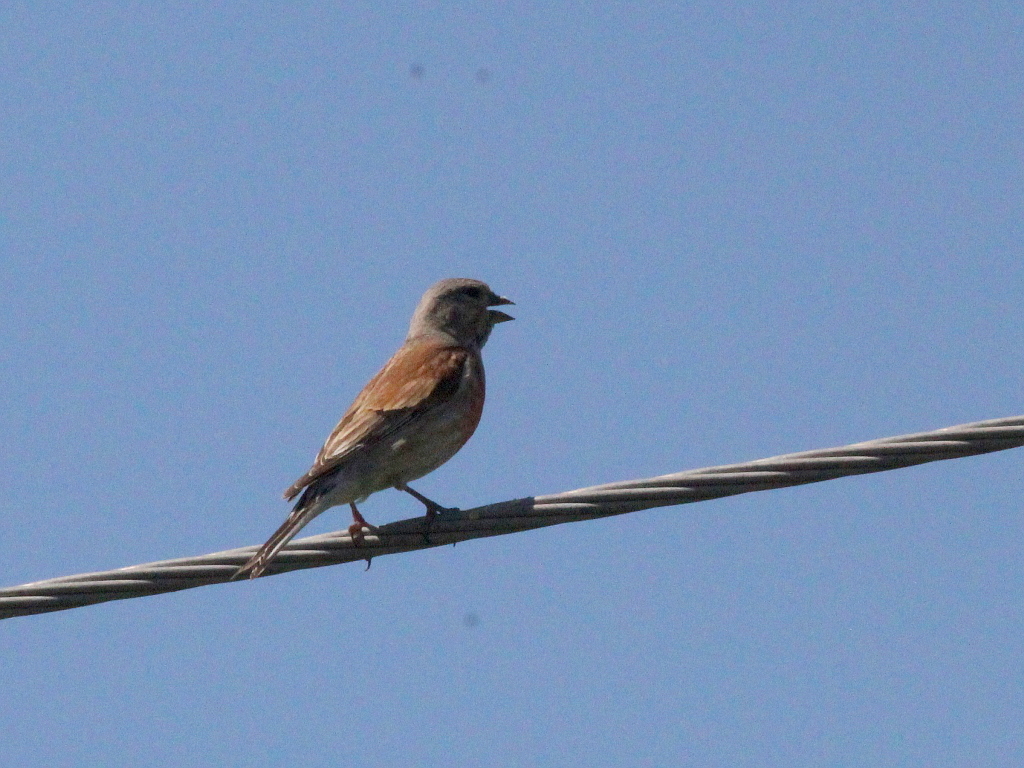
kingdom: Animalia
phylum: Chordata
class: Aves
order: Passeriformes
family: Fringillidae
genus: Linaria
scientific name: Linaria cannabina
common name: Common linnet
